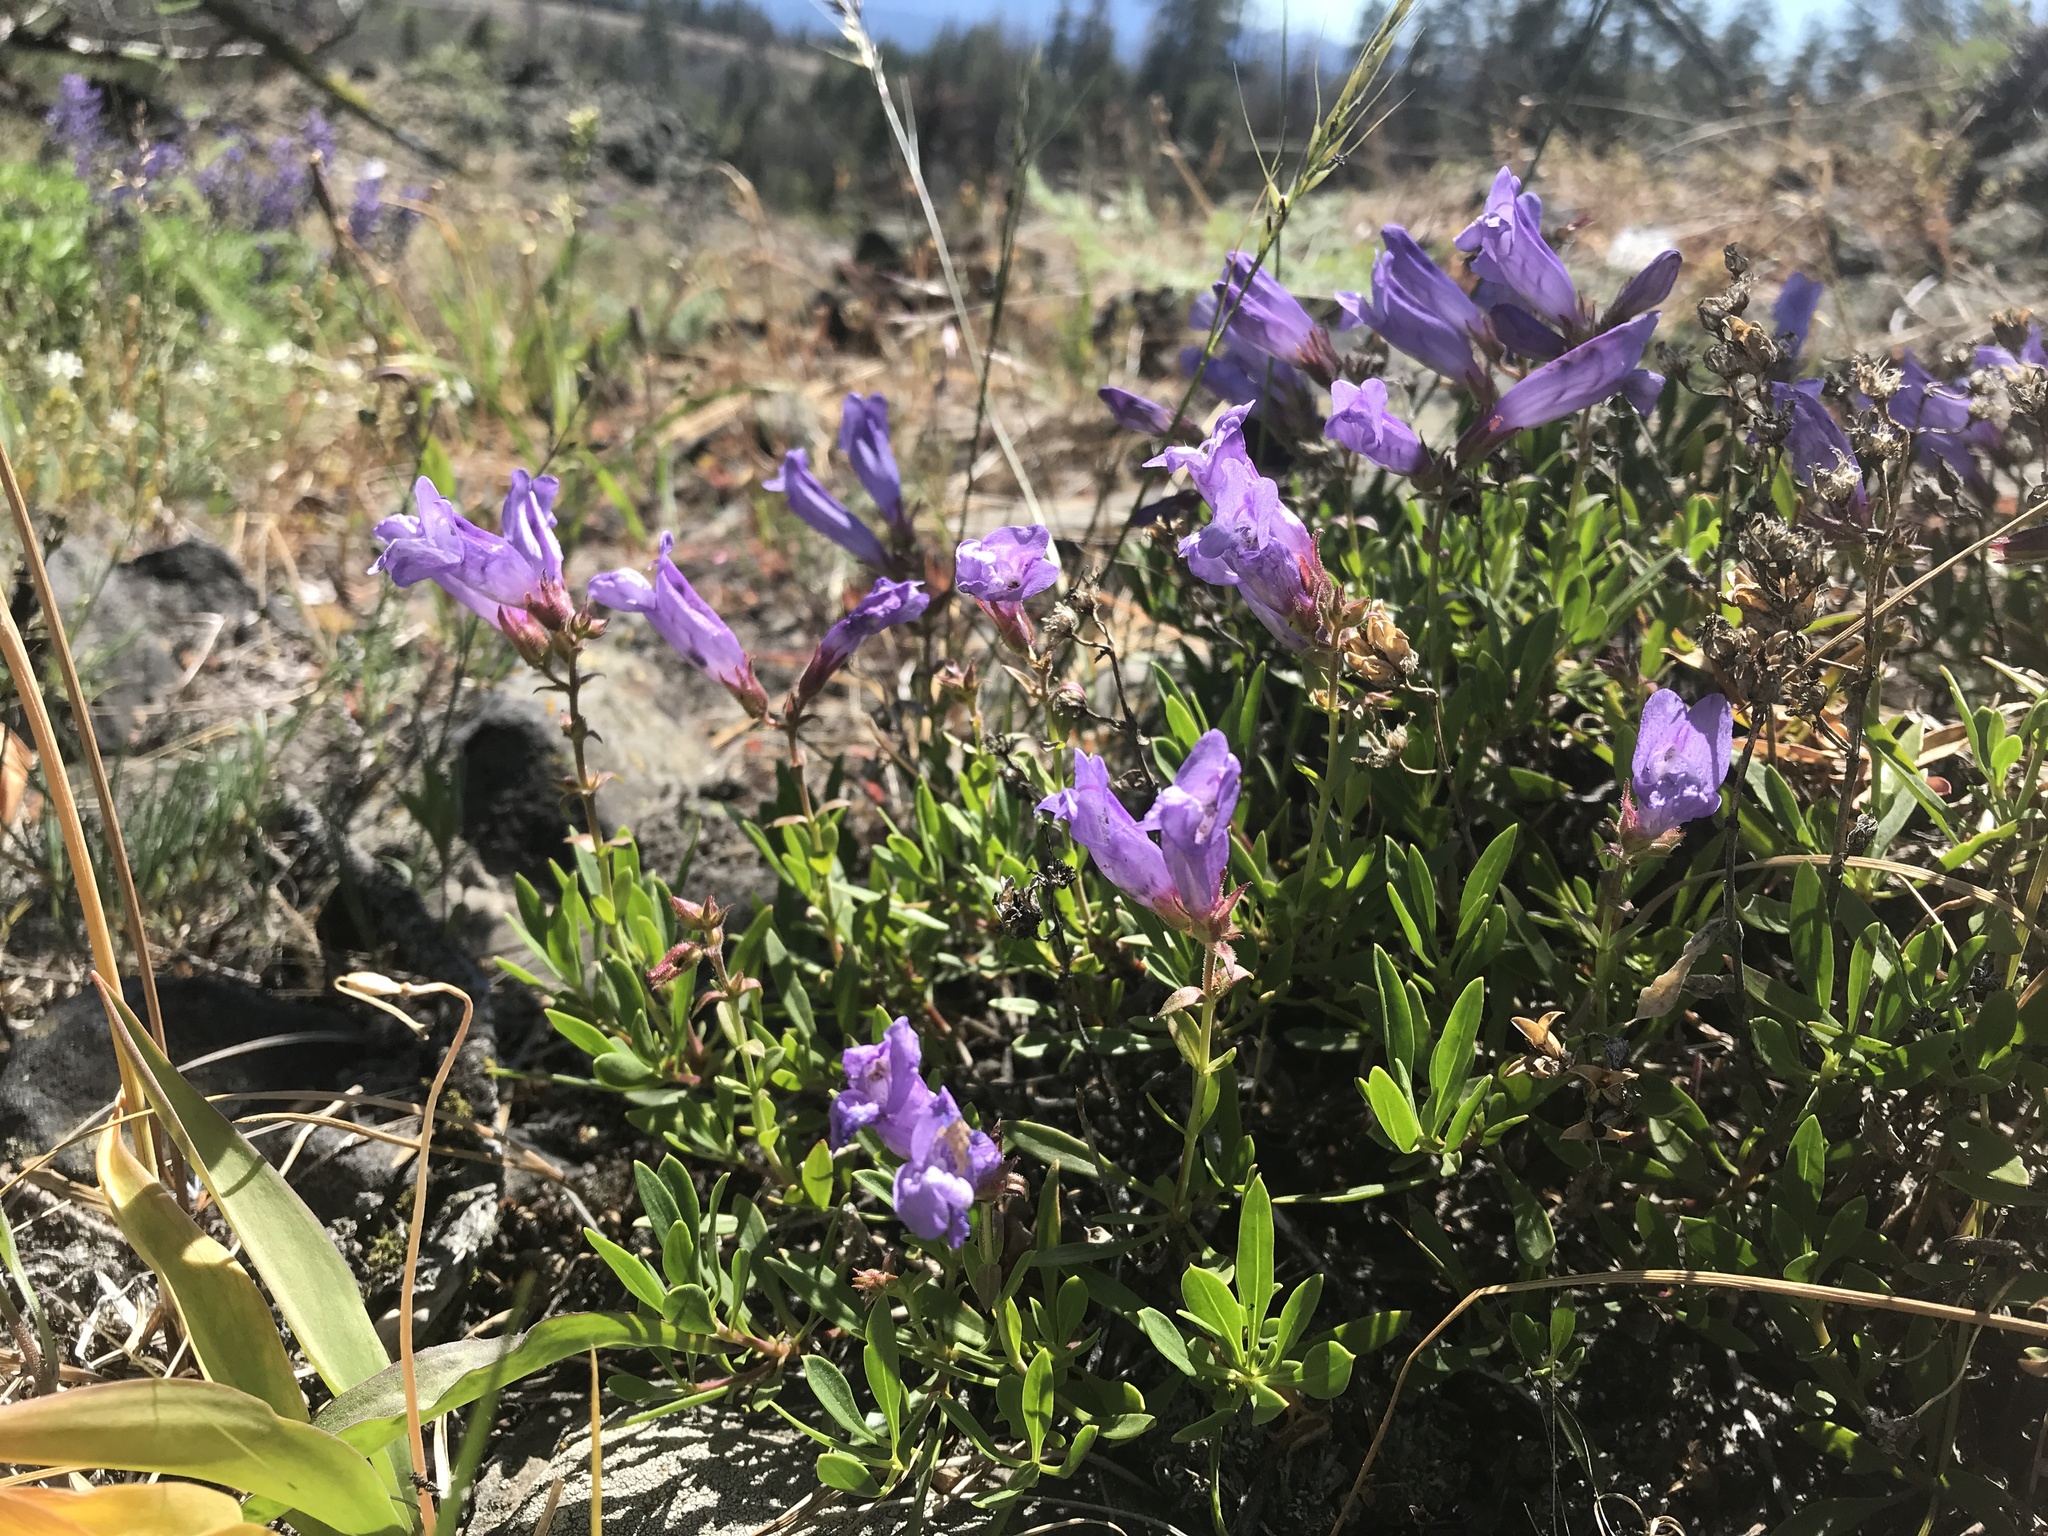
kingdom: Plantae
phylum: Tracheophyta
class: Magnoliopsida
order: Lamiales
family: Plantaginaceae
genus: Penstemon
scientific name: Penstemon fruticosus
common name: Bush penstemon
